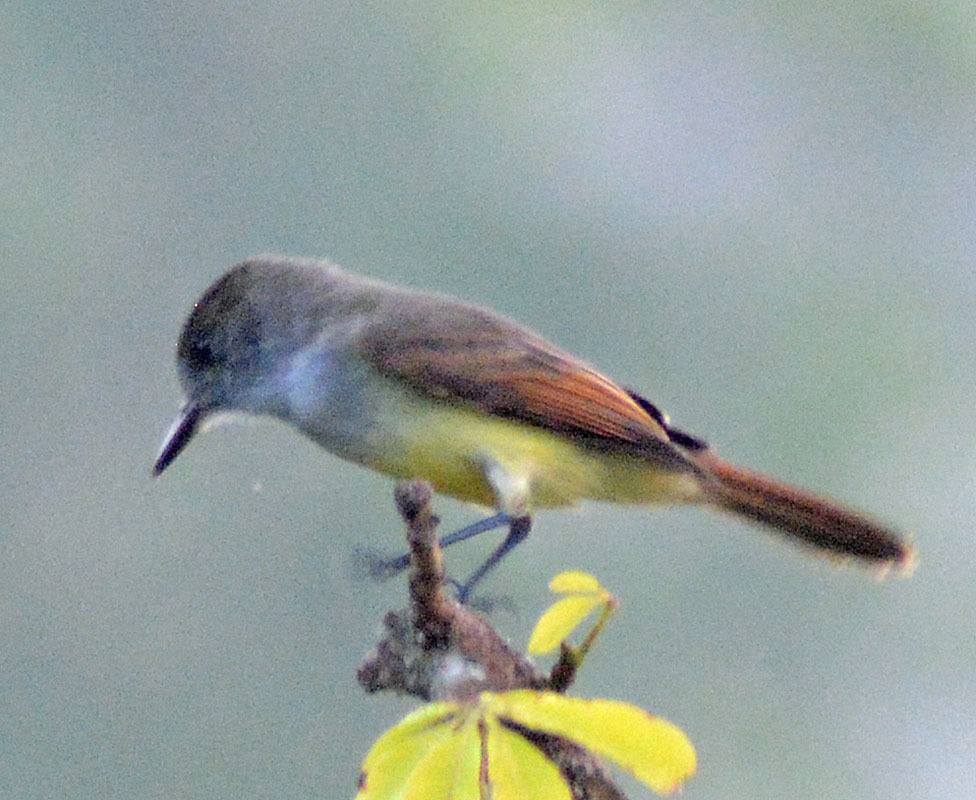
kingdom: Animalia
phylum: Chordata
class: Aves
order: Passeriformes
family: Tyrannidae
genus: Myiarchus
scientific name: Myiarchus tuberculifer
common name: Dusky-capped flycatcher
